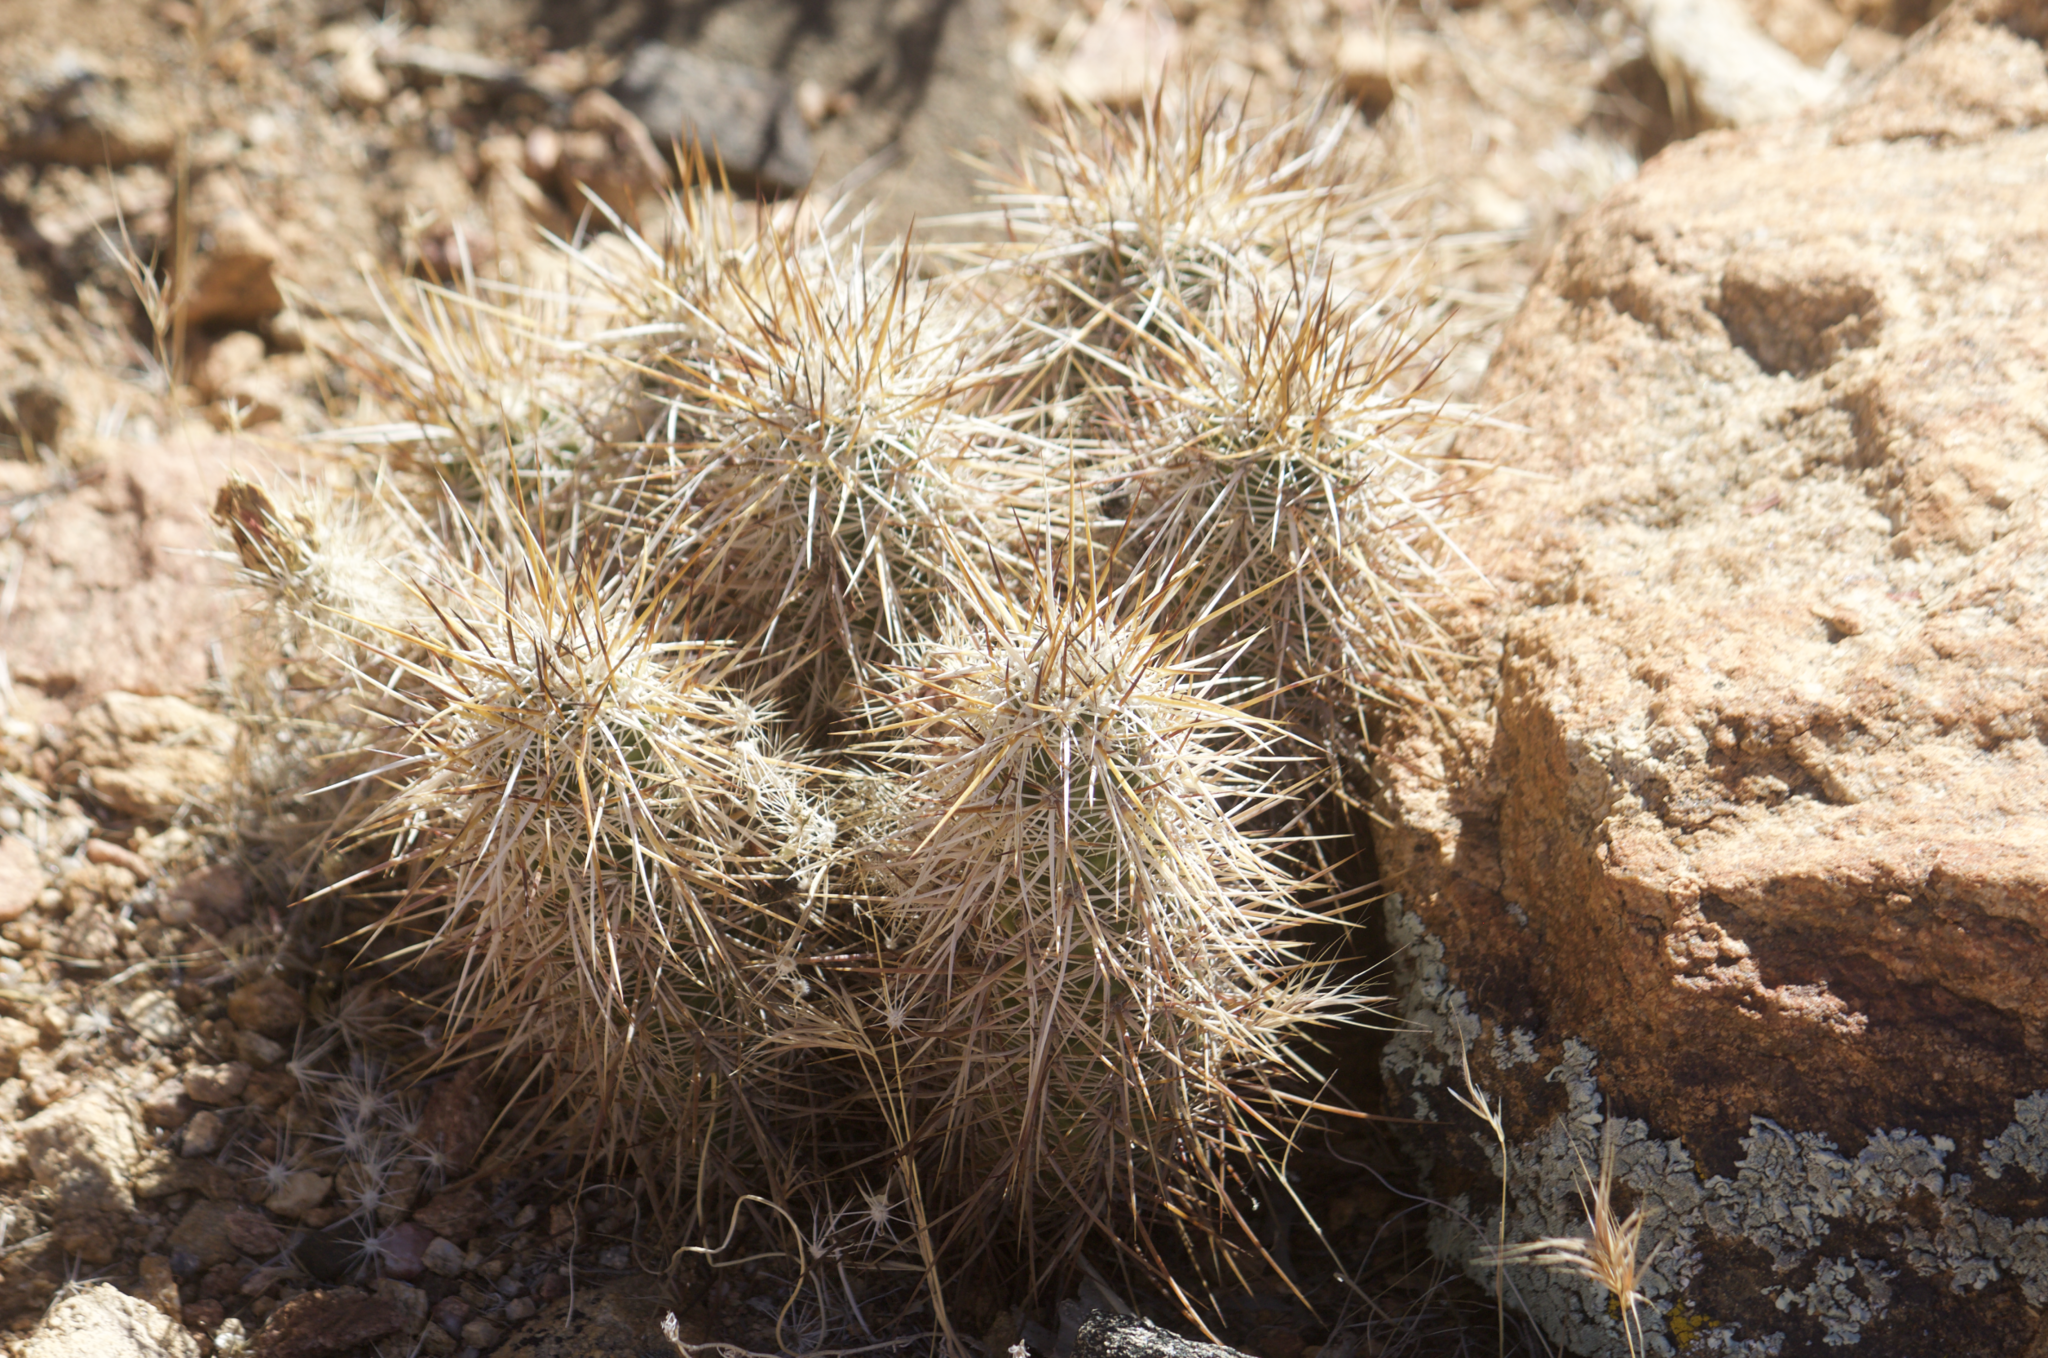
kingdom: Plantae
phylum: Tracheophyta
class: Magnoliopsida
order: Caryophyllales
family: Cactaceae
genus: Echinocereus
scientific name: Echinocereus engelmannii
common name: Engelmann's hedgehog cactus
